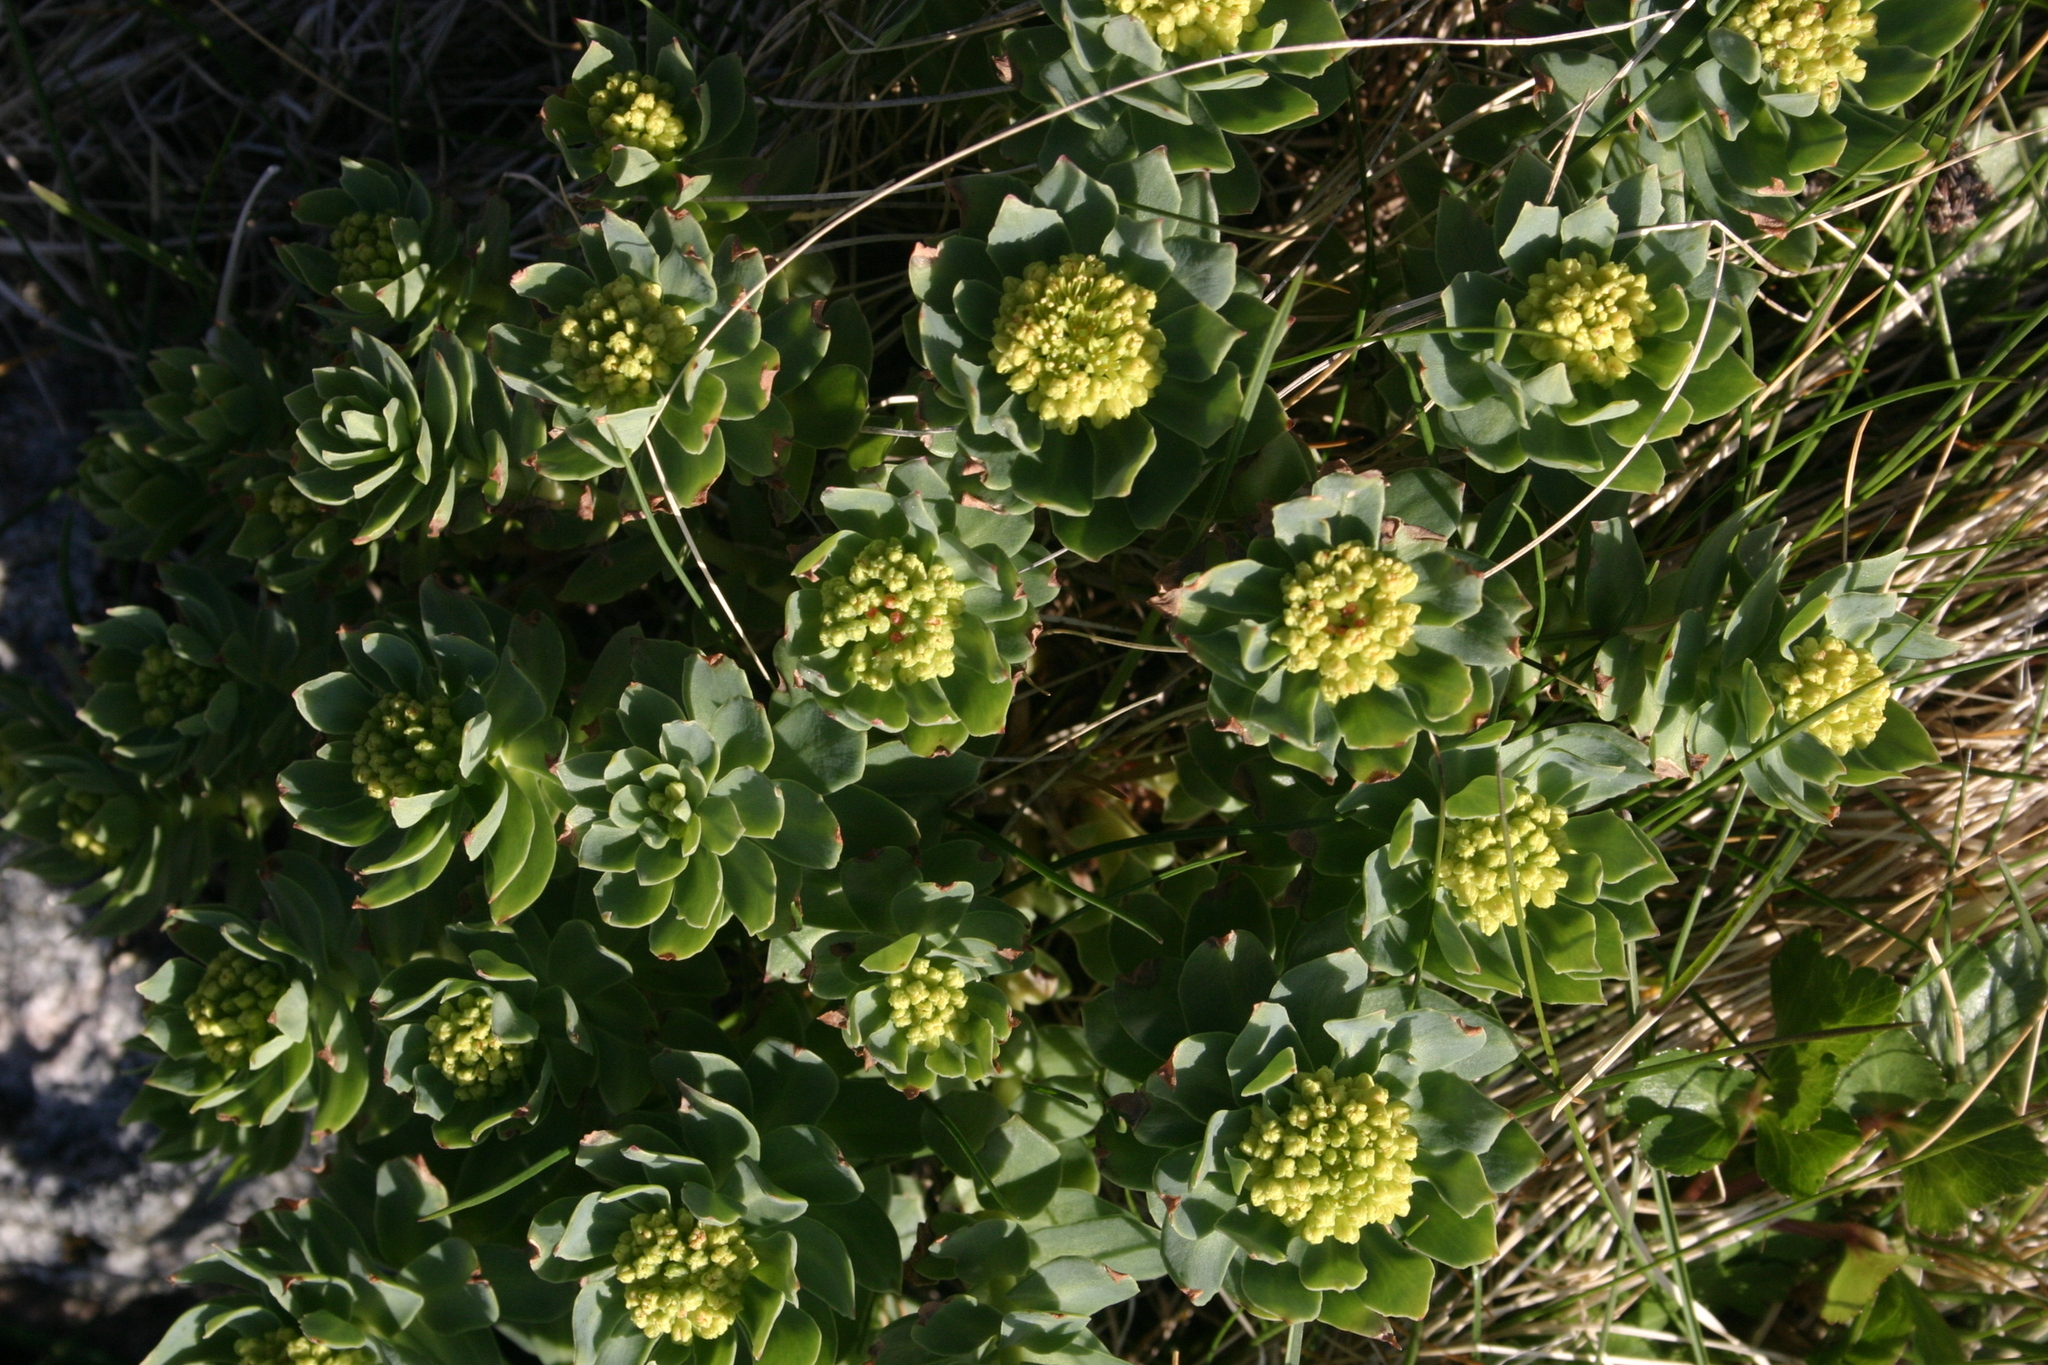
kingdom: Plantae
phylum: Tracheophyta
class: Magnoliopsida
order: Saxifragales
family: Crassulaceae
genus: Rhodiola
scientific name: Rhodiola rosea
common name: Roseroot
